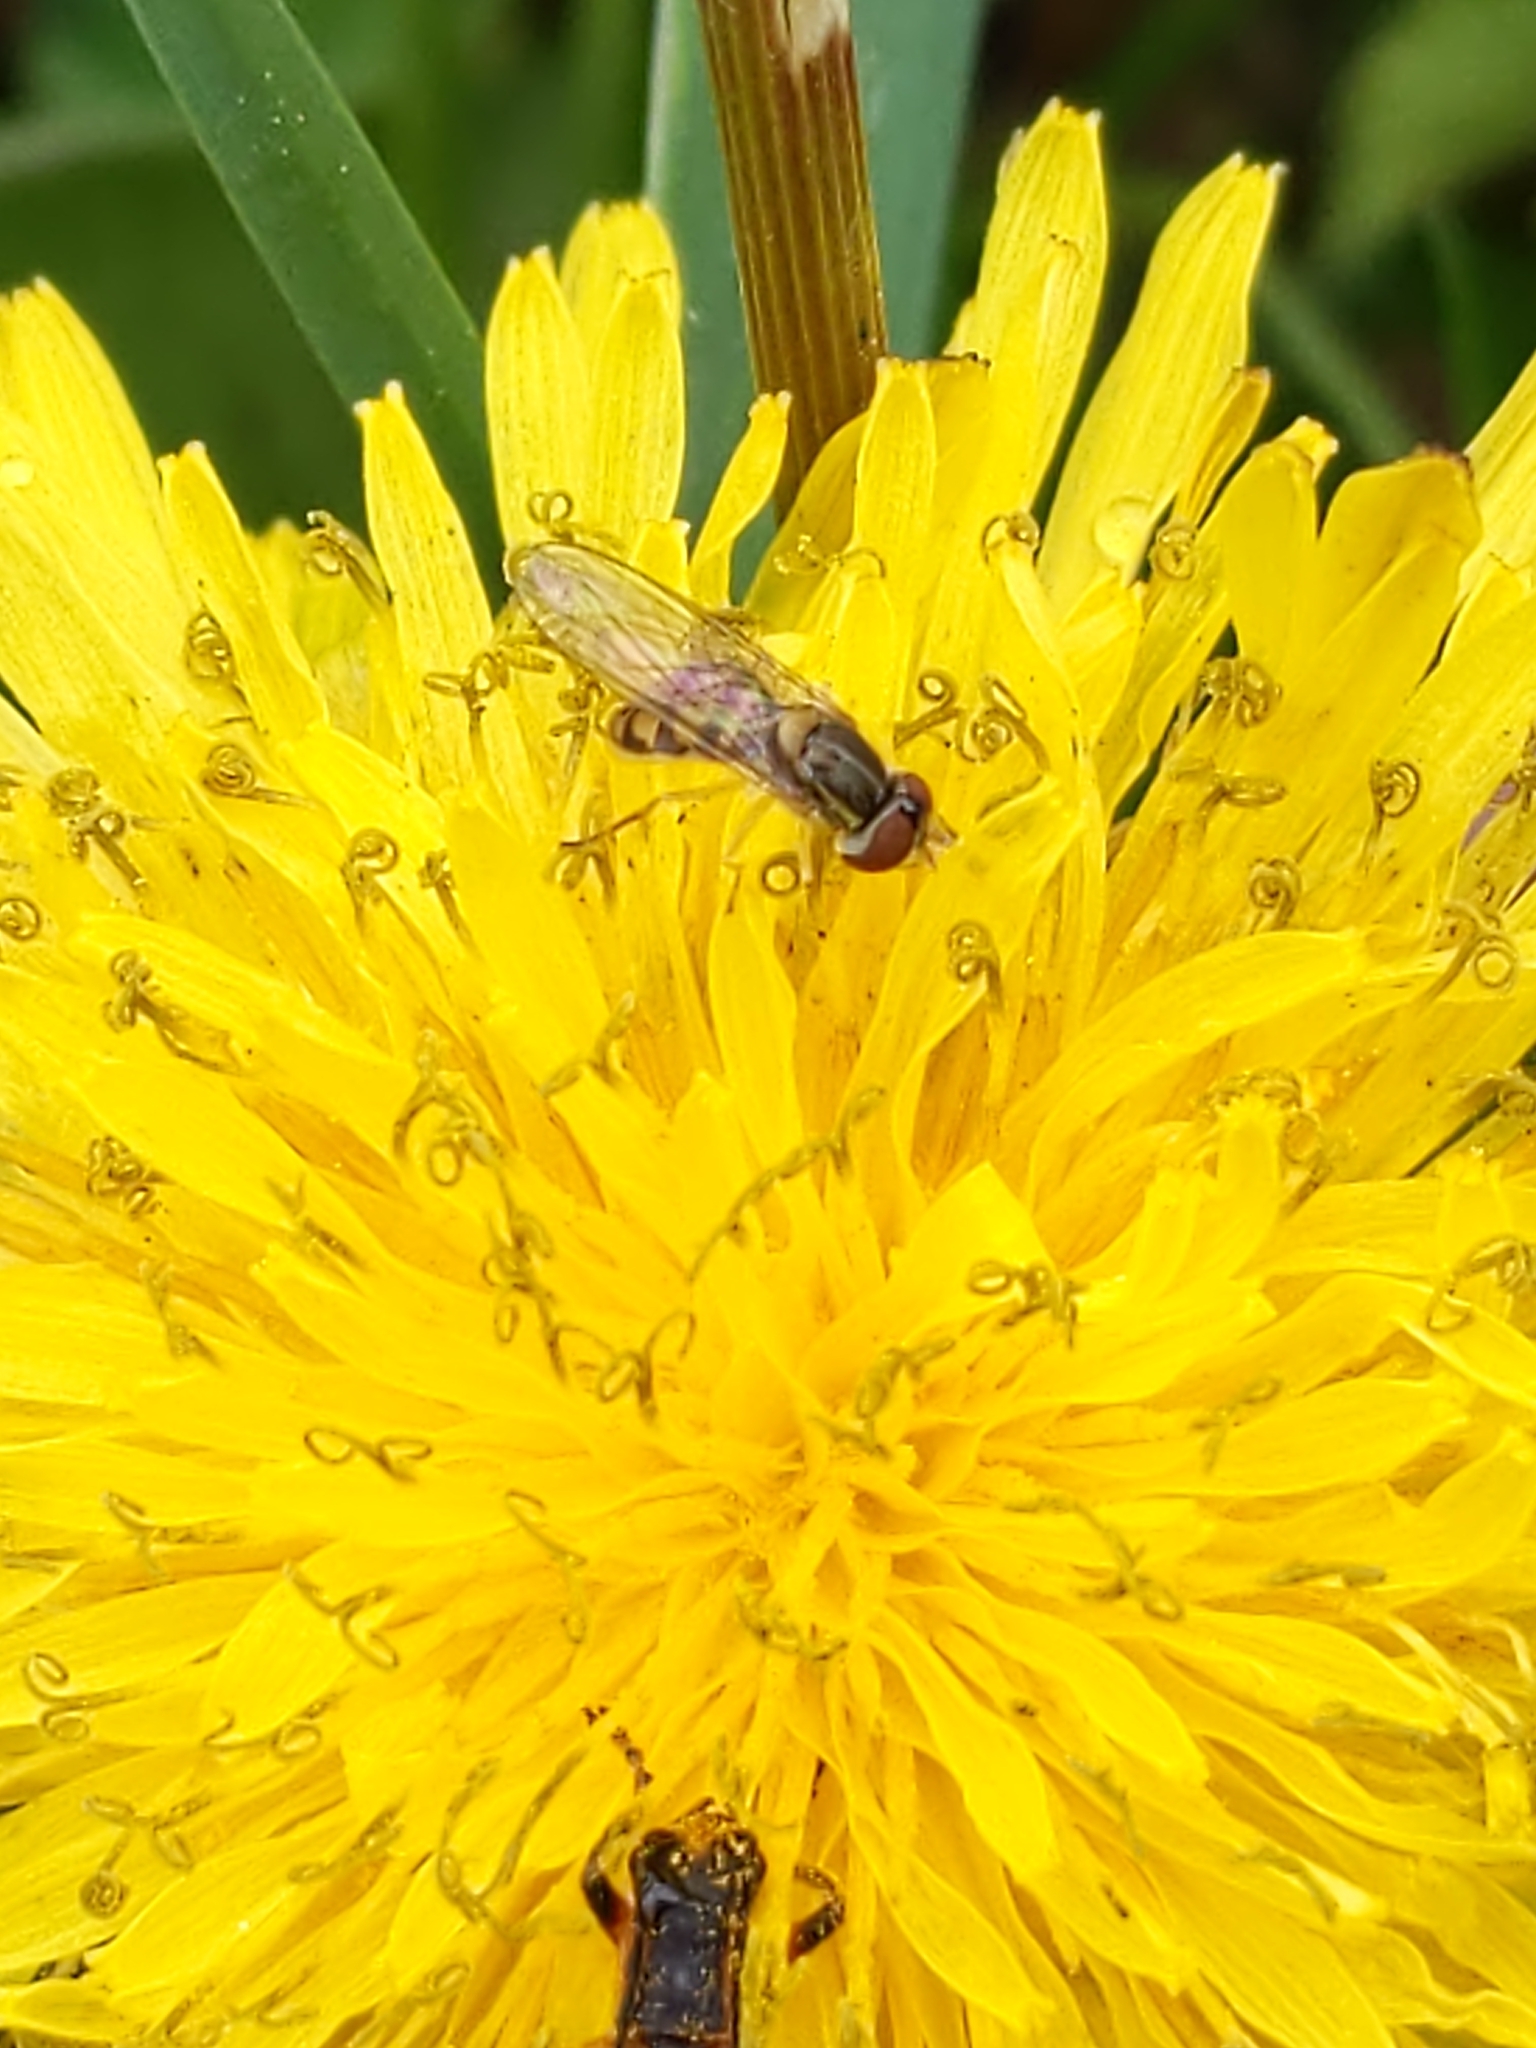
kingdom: Animalia
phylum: Arthropoda
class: Insecta
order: Diptera
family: Syrphidae
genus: Toxomerus
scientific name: Toxomerus marginatus
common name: Syrphid fly
